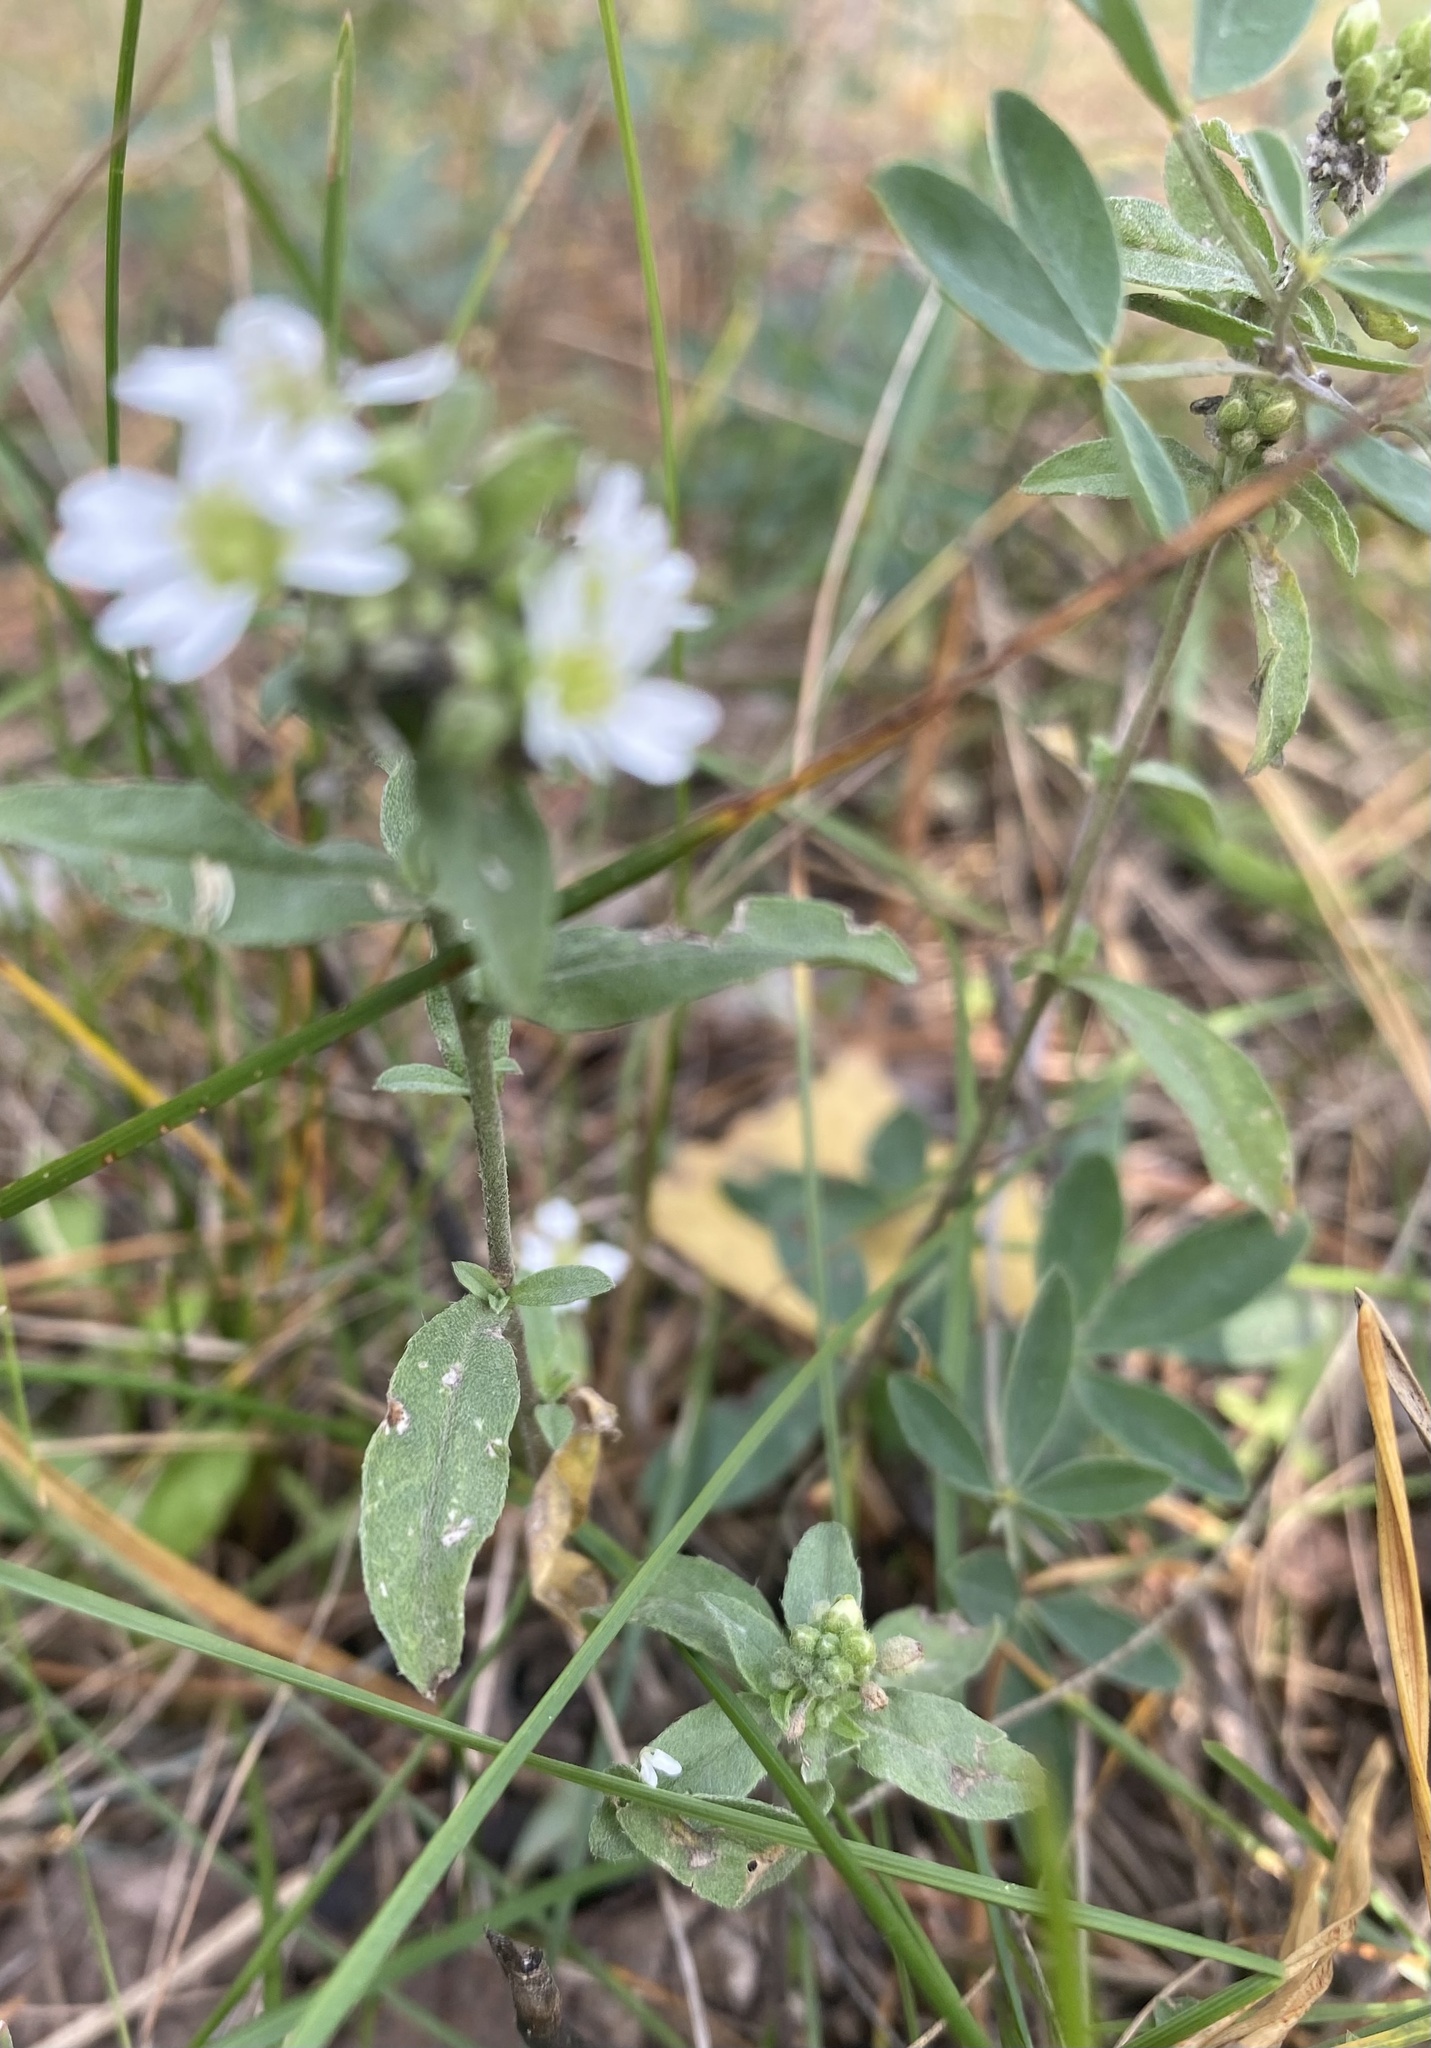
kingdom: Plantae
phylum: Tracheophyta
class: Magnoliopsida
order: Brassicales
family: Brassicaceae
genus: Berteroa
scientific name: Berteroa incana
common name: Hoary alison
